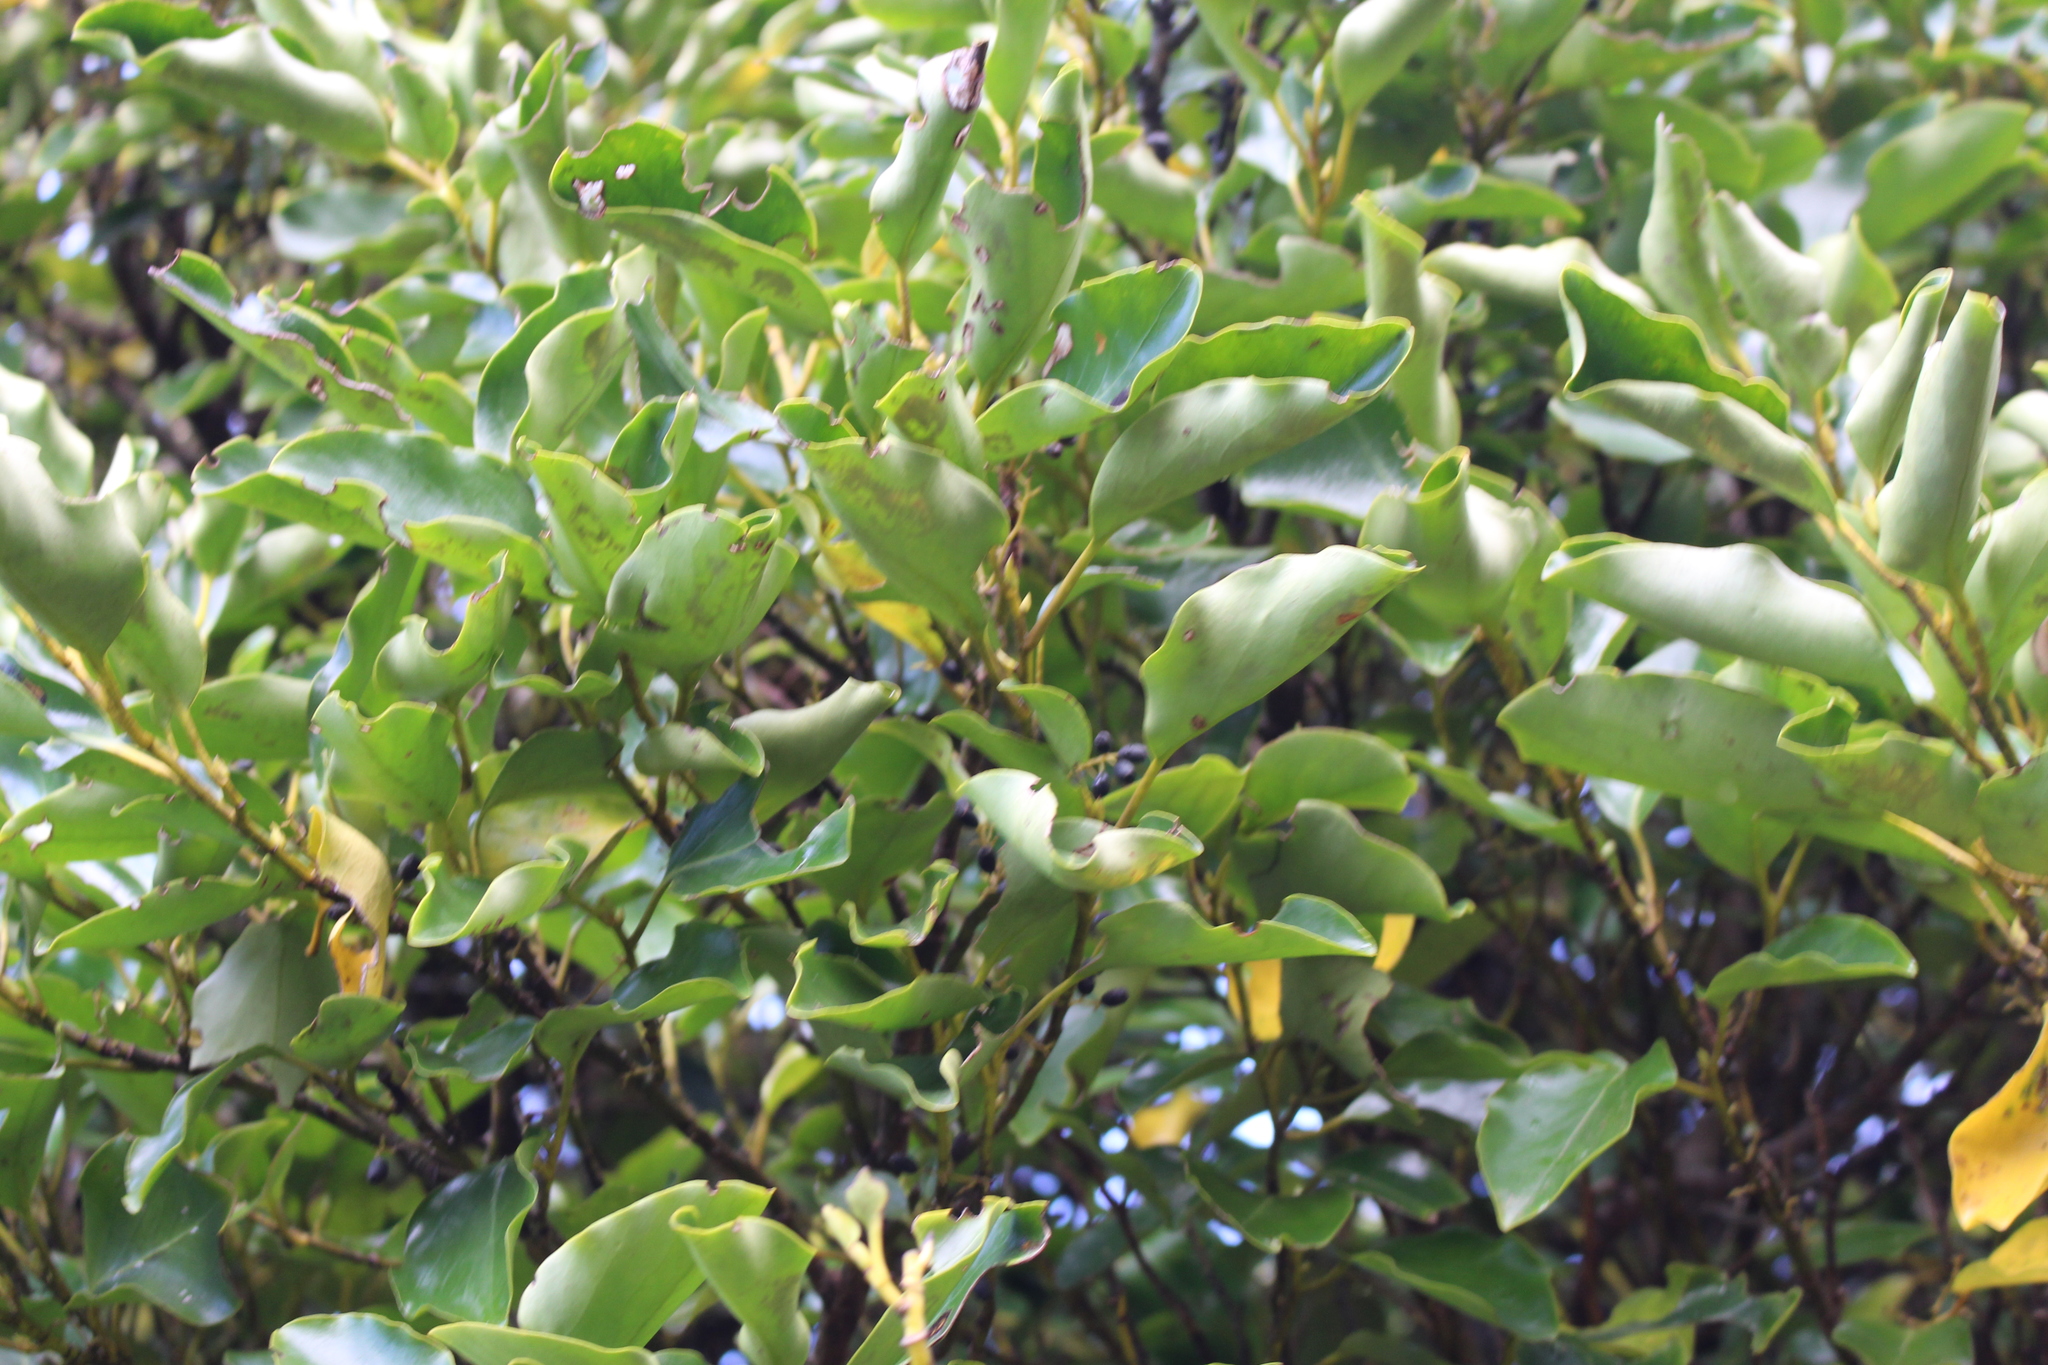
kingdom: Plantae
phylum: Tracheophyta
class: Magnoliopsida
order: Apiales
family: Griseliniaceae
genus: Griselinia
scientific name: Griselinia littoralis
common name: New zealand broadleaf
